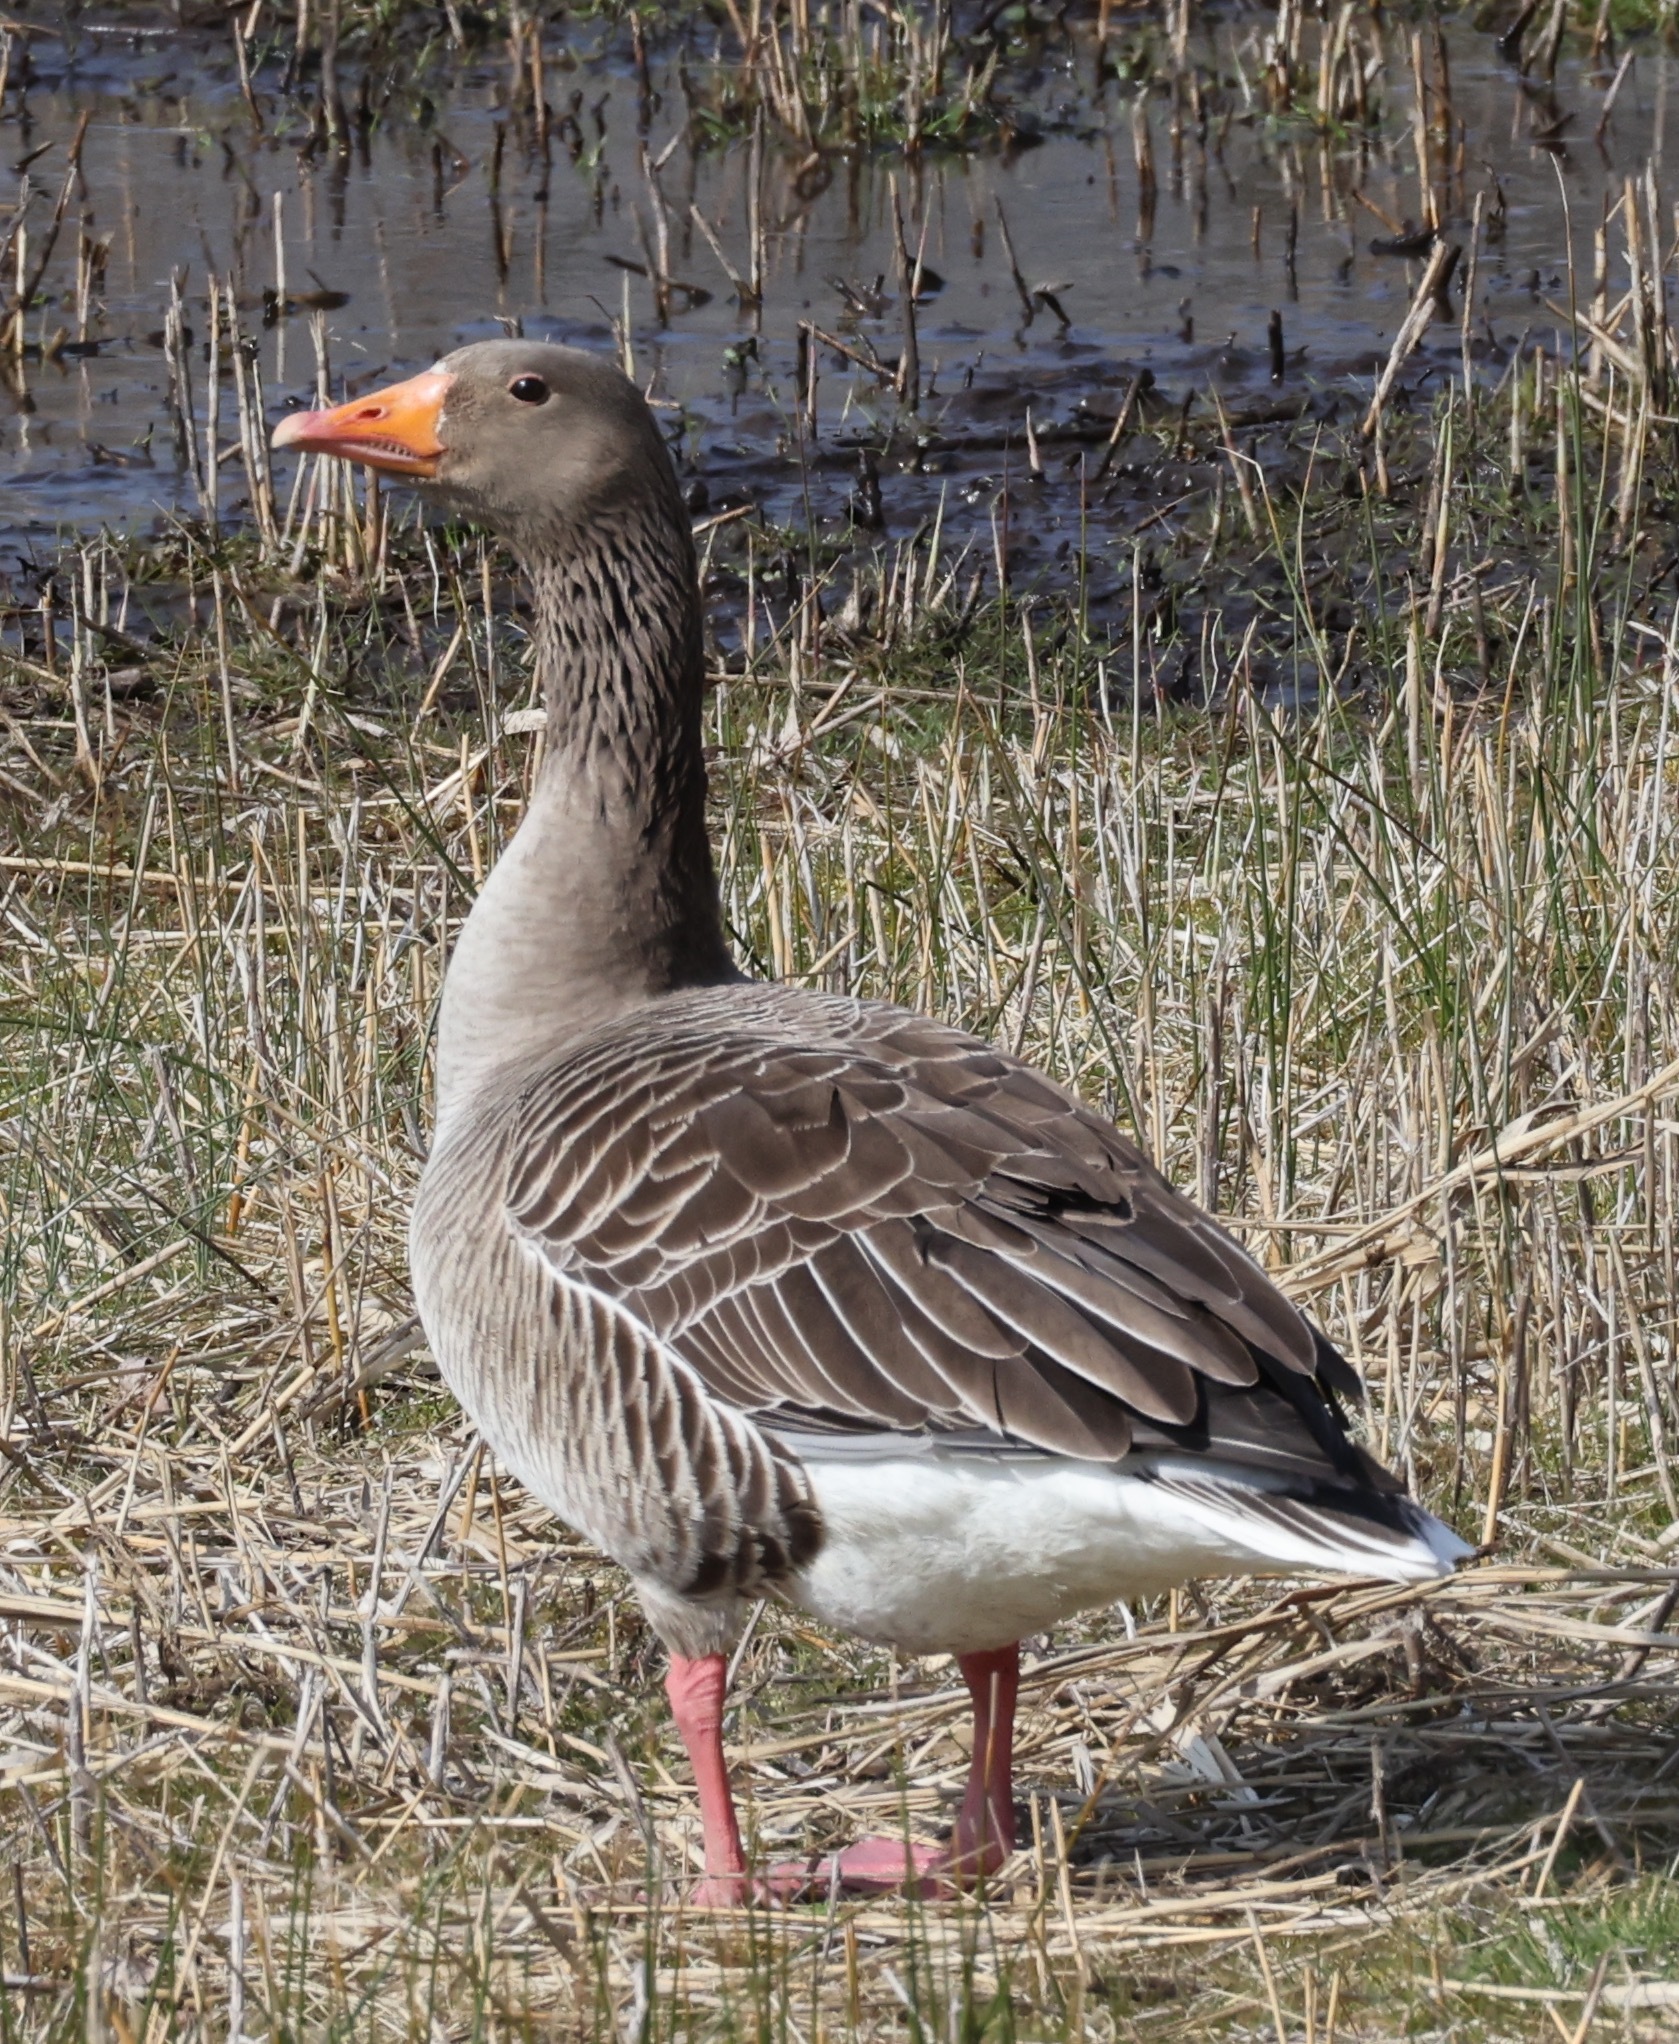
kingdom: Animalia
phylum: Chordata
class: Aves
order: Anseriformes
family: Anatidae
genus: Anser
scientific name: Anser anser
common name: Greylag goose
